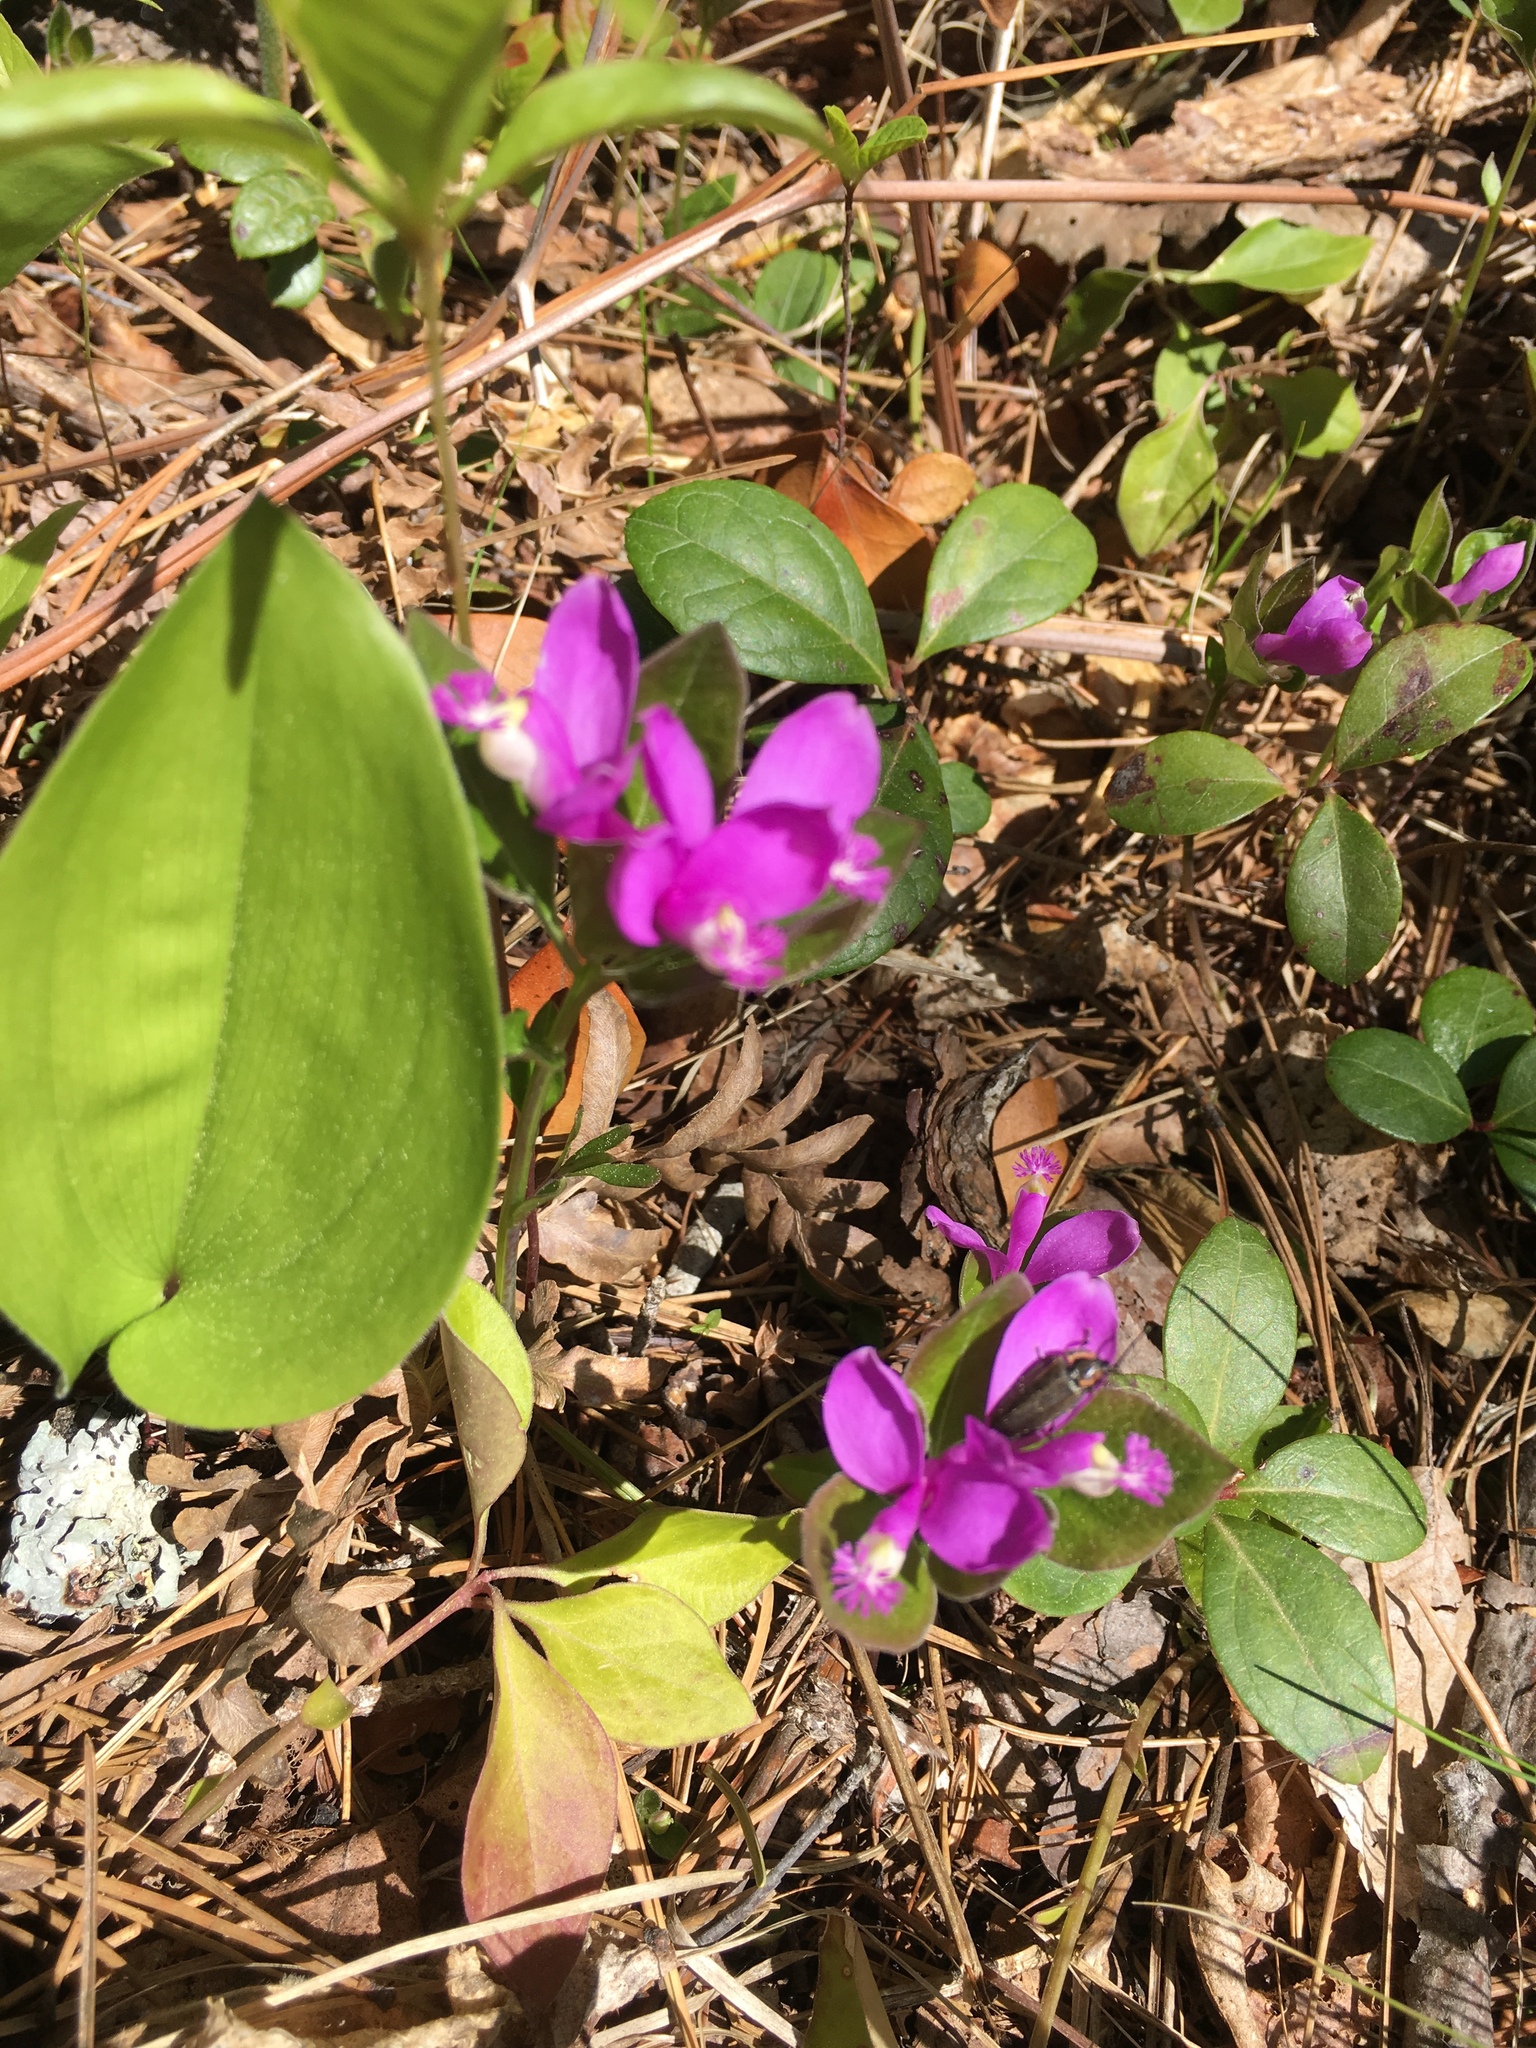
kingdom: Plantae
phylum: Tracheophyta
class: Magnoliopsida
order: Fabales
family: Polygalaceae
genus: Polygaloides
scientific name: Polygaloides paucifolia
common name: Bird-on-the-wing
